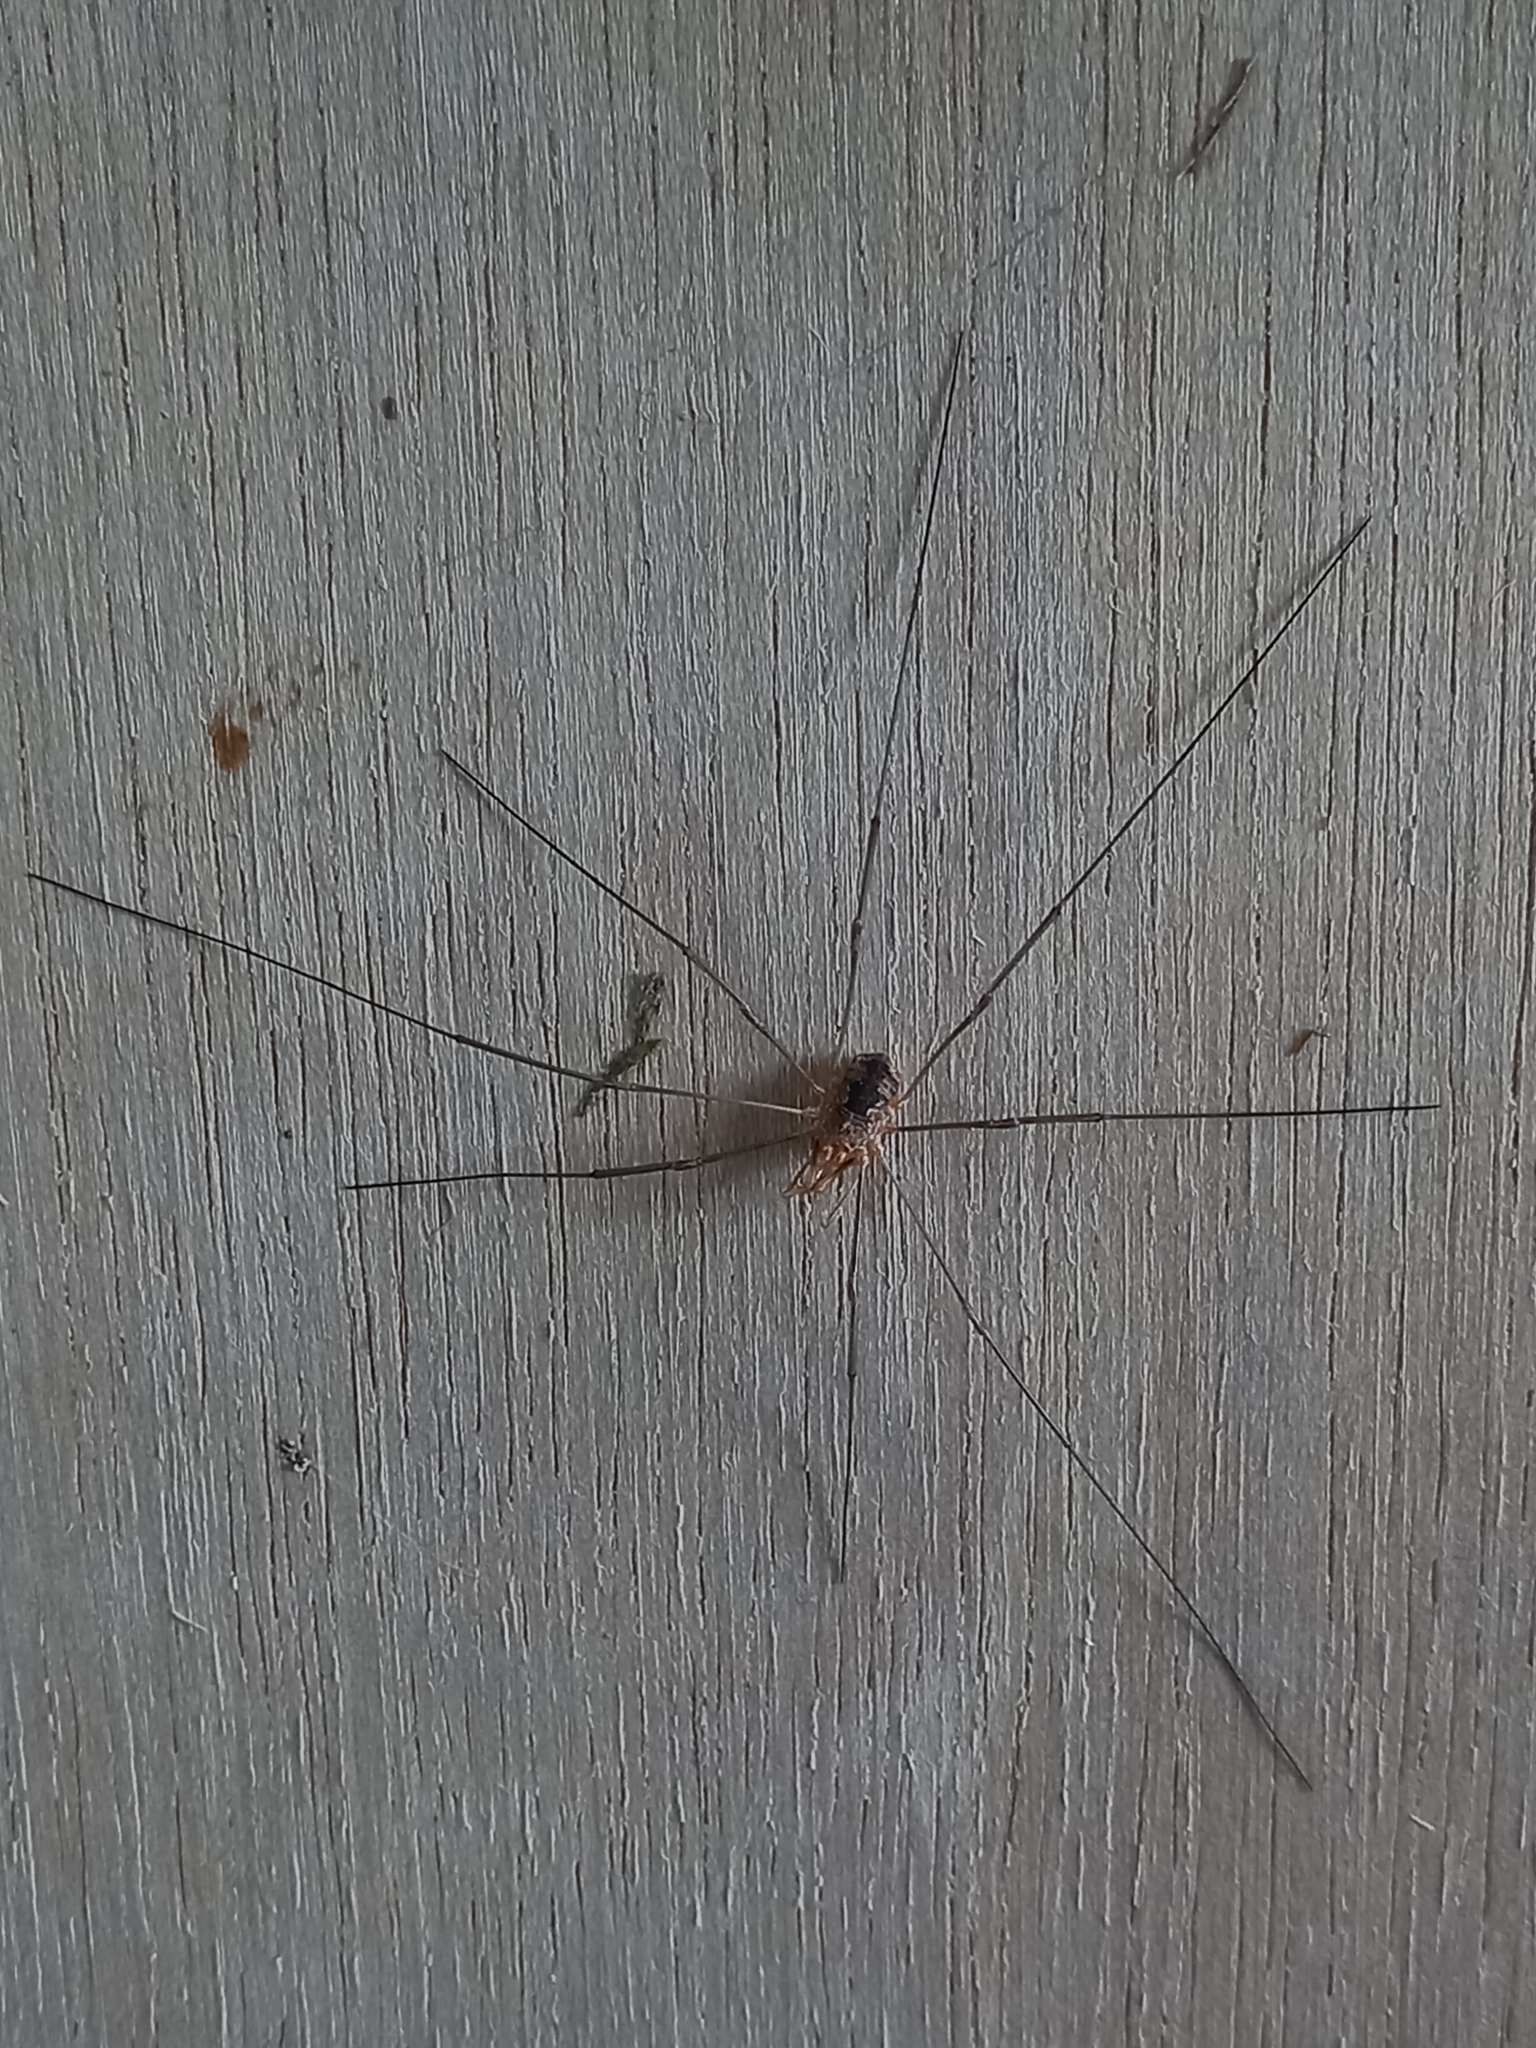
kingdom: Animalia
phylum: Arthropoda
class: Arachnida
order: Opiliones
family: Phalangiidae
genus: Phalangium
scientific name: Phalangium opilio
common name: Daddy longleg
